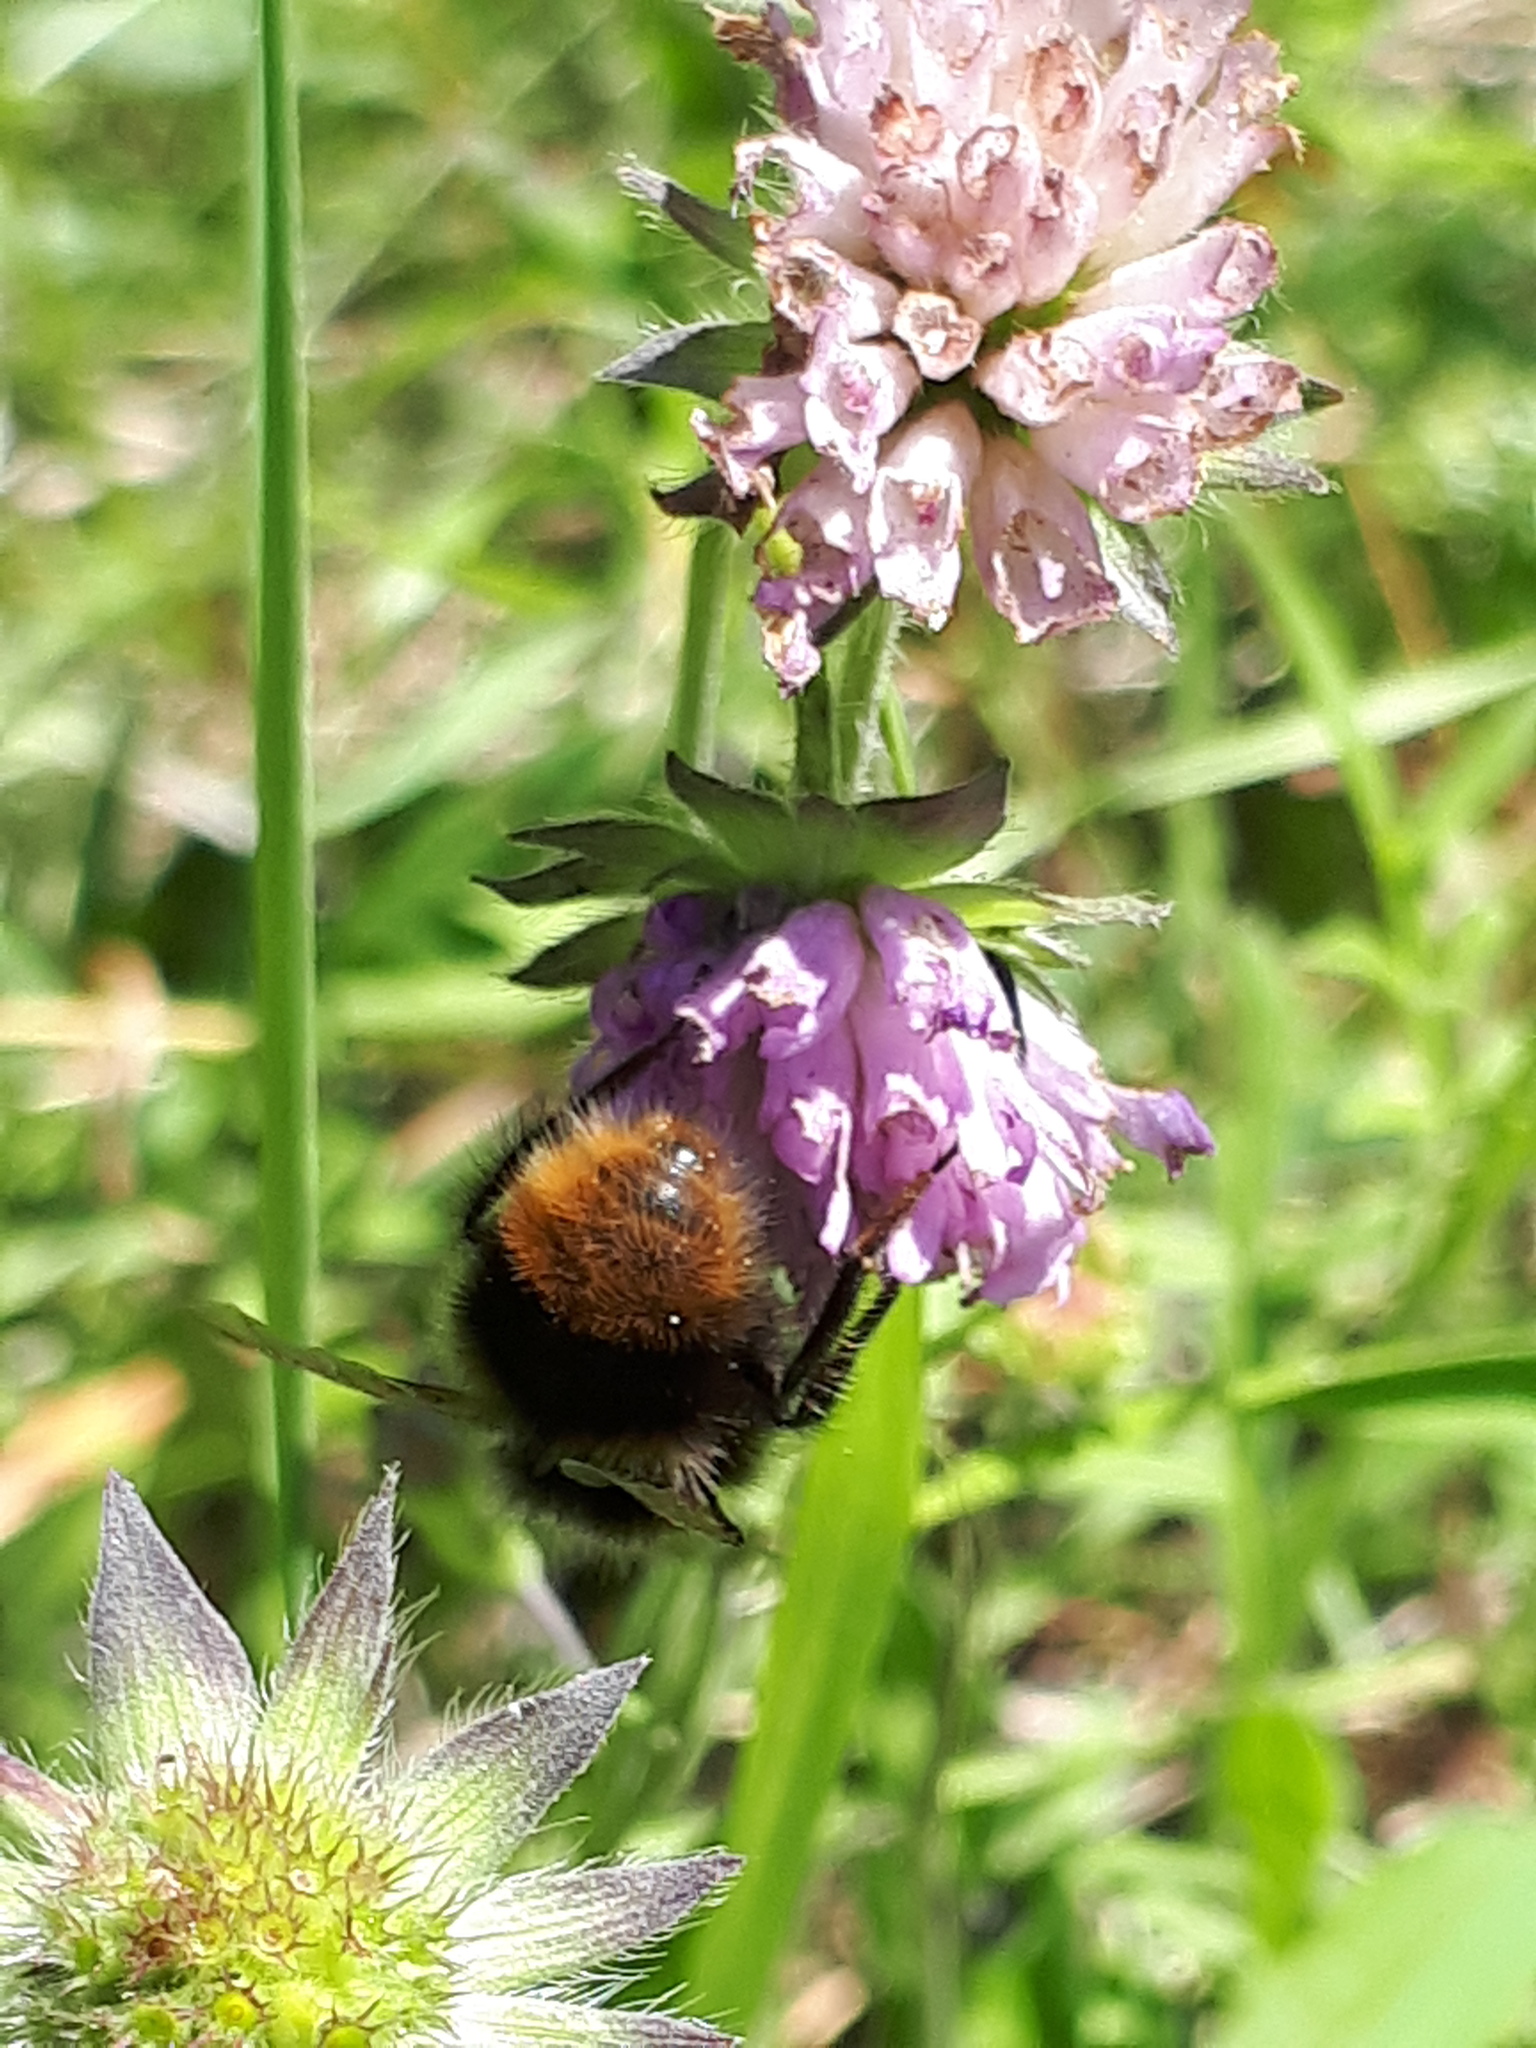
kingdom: Animalia
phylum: Arthropoda
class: Insecta
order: Hymenoptera
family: Apidae
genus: Bombus
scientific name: Bombus pratorum
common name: Early humble-bee
